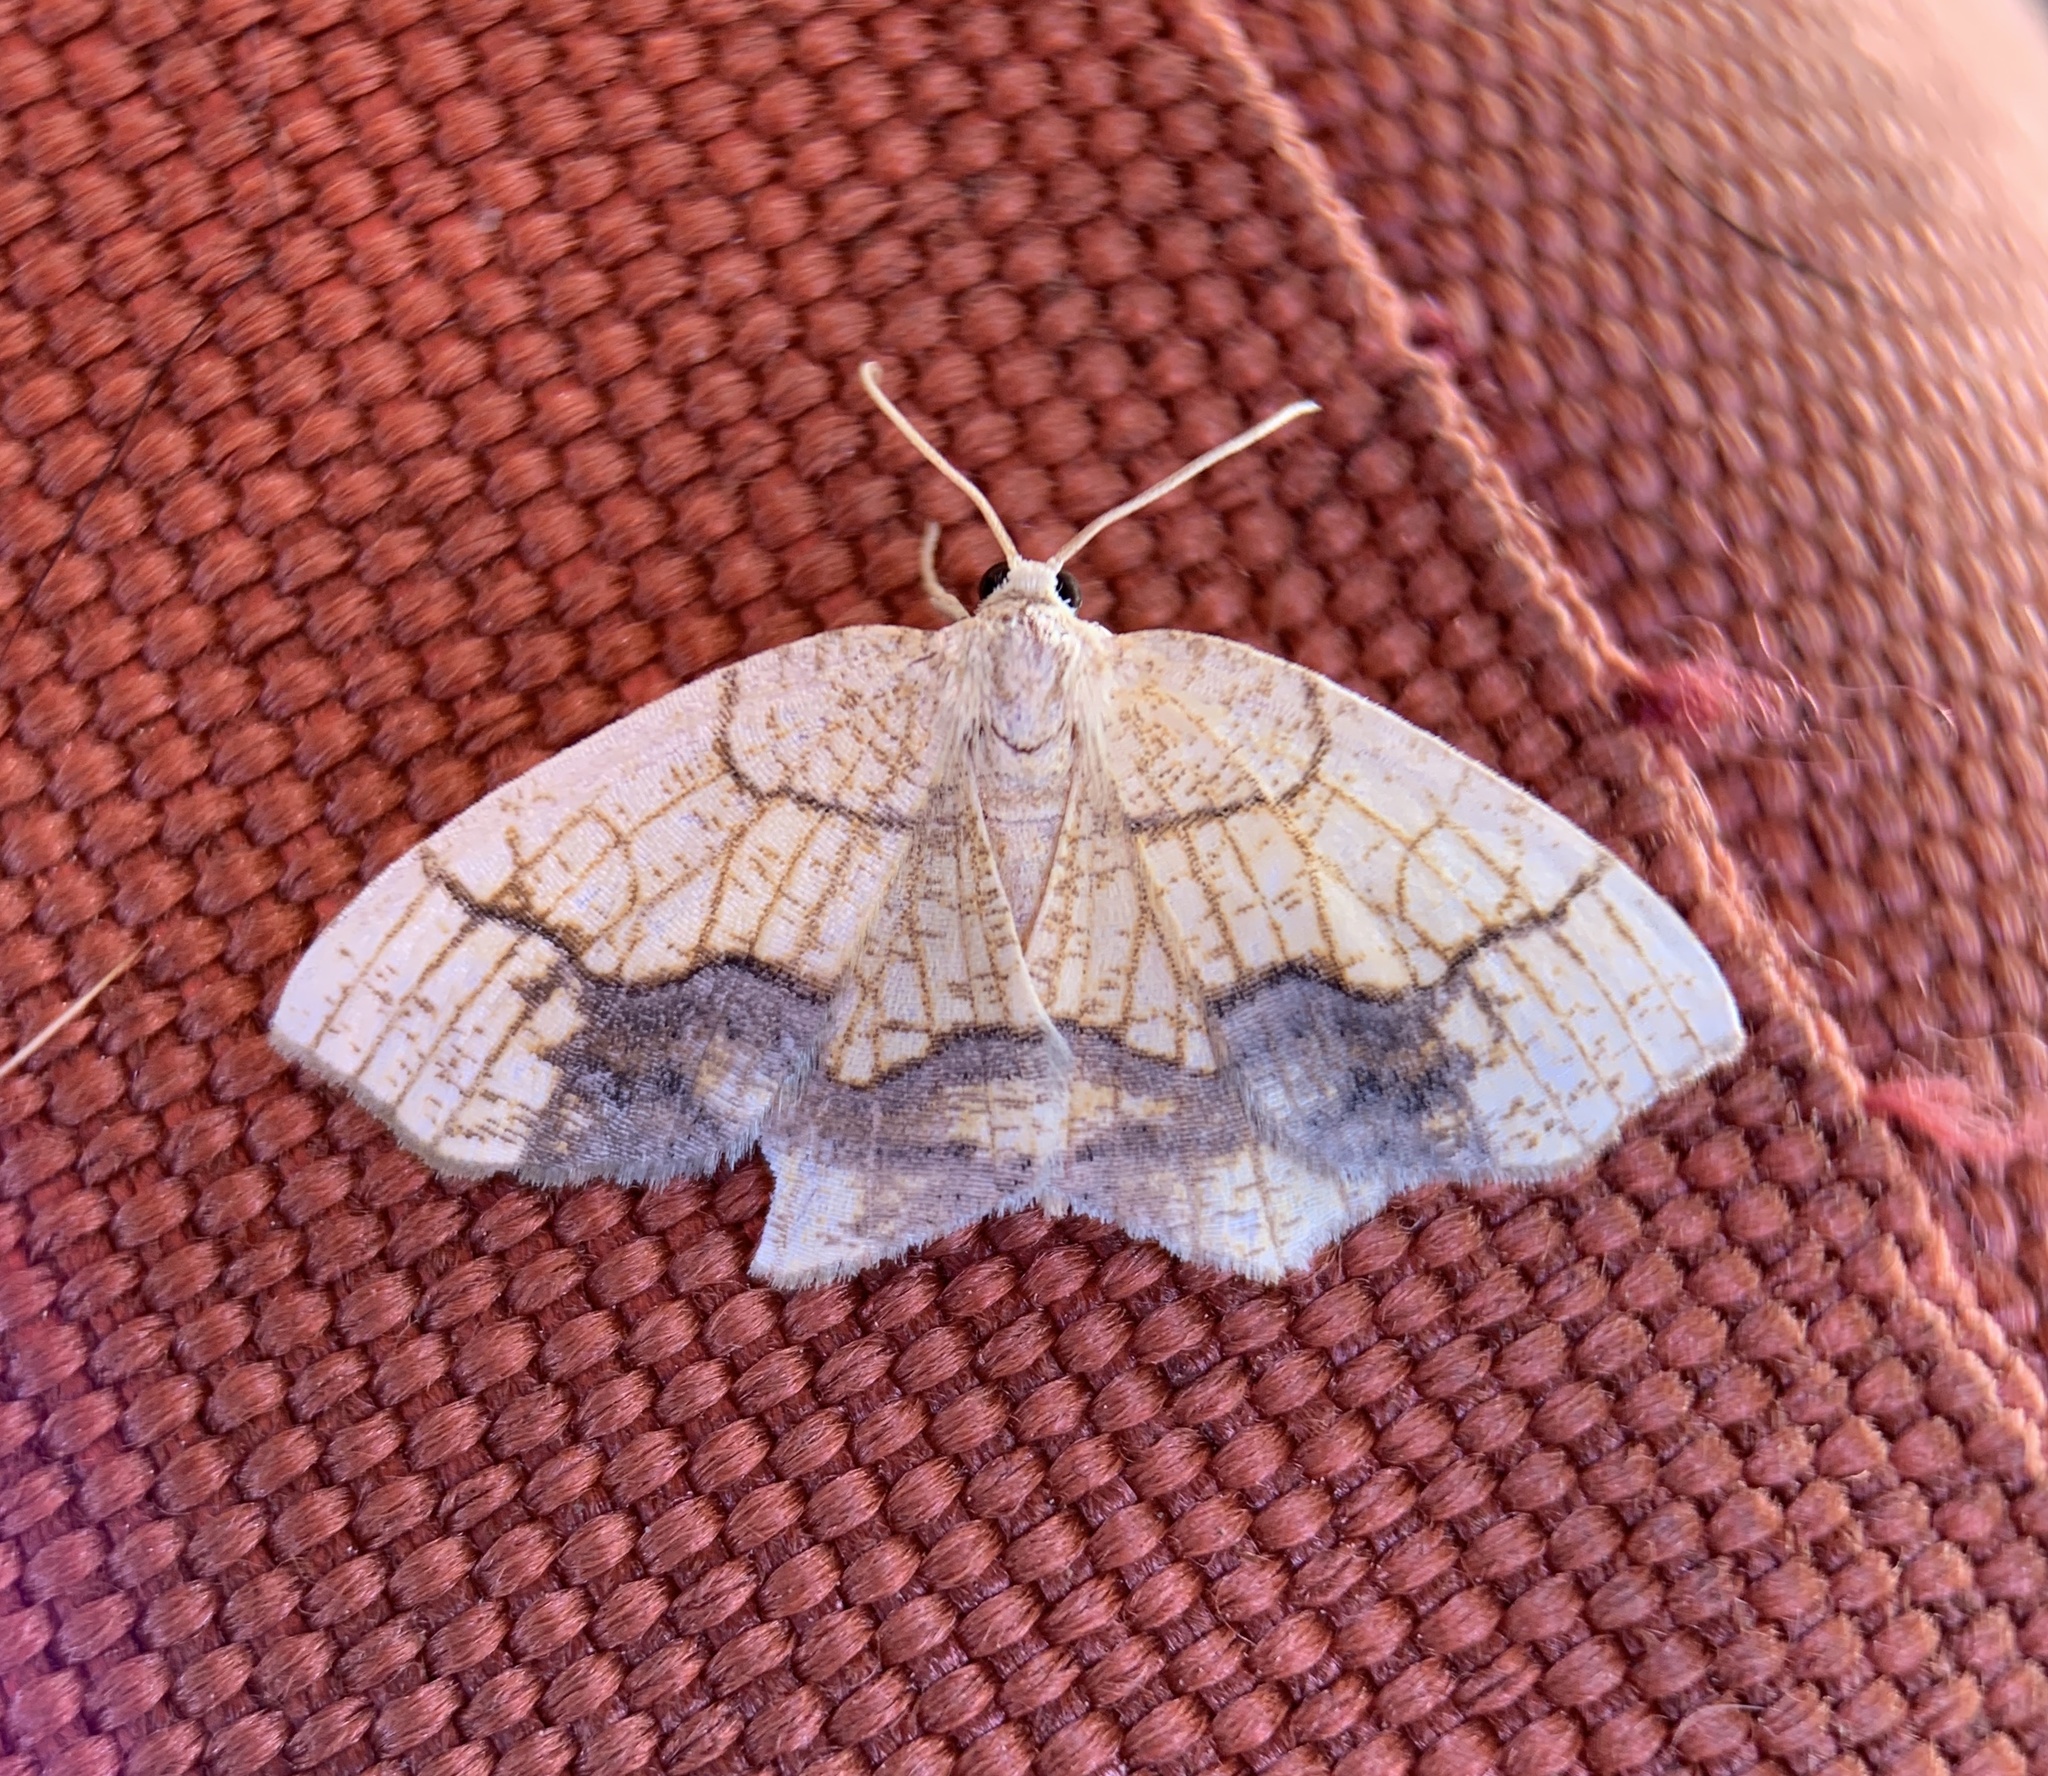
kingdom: Animalia
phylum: Arthropoda
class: Insecta
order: Lepidoptera
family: Geometridae
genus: Nematocampa
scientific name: Nematocampa resistaria
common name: Horned spanworm moth
